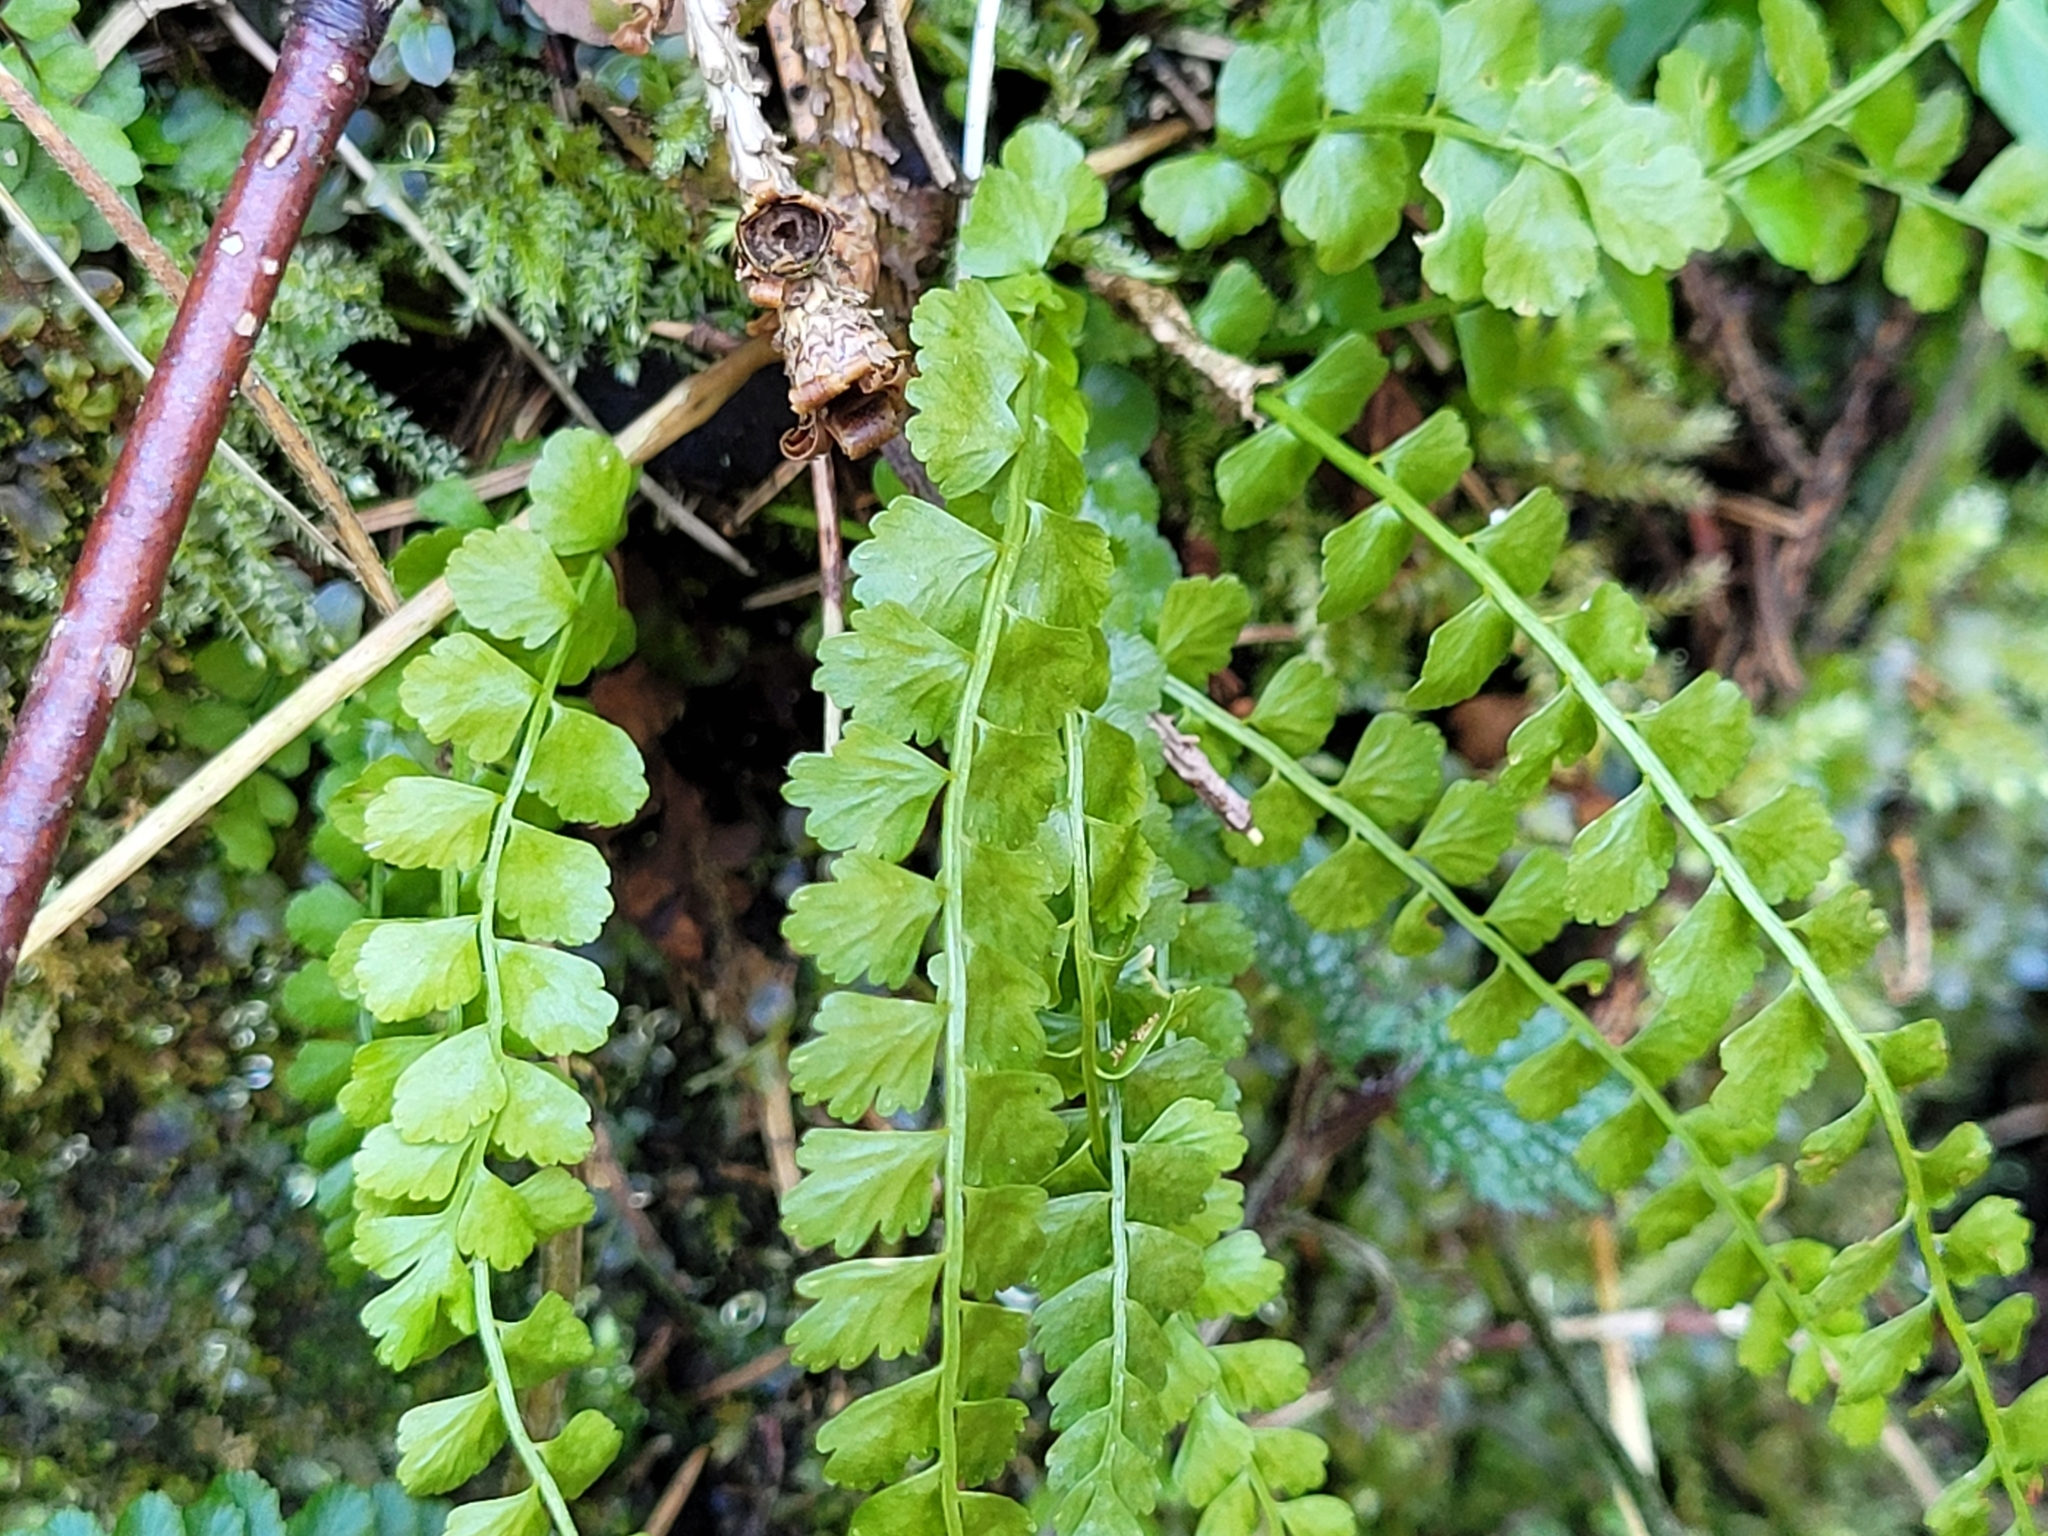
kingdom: Plantae
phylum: Tracheophyta
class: Polypodiopsida
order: Polypodiales
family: Aspleniaceae
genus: Asplenium
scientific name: Asplenium viride
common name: Green spleenwort
